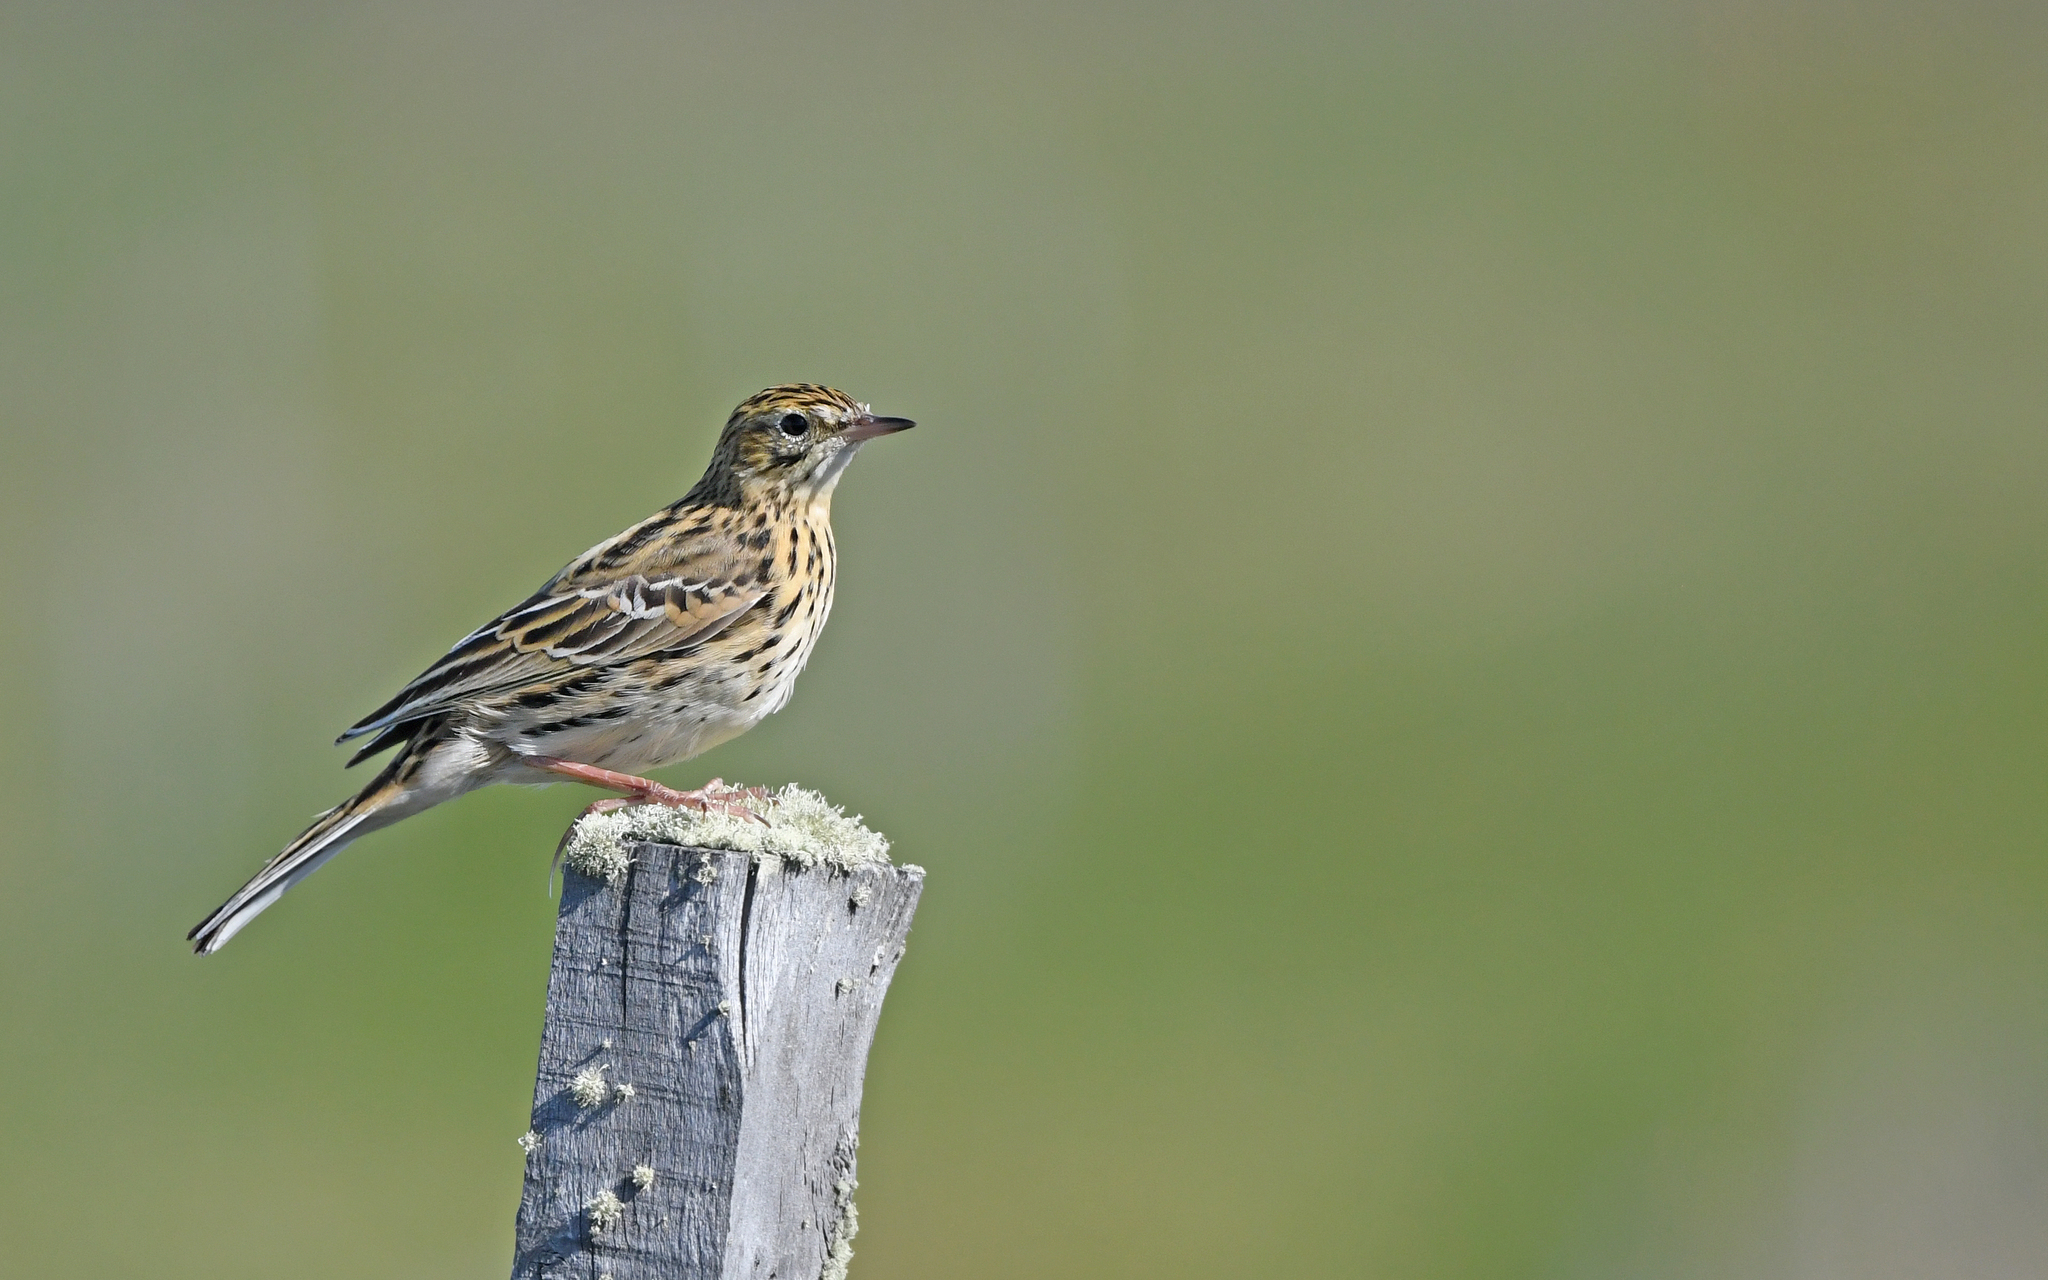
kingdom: Animalia
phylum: Chordata
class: Aves
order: Passeriformes
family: Motacillidae
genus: Anthus
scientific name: Anthus correndera
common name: Correndera pipit
